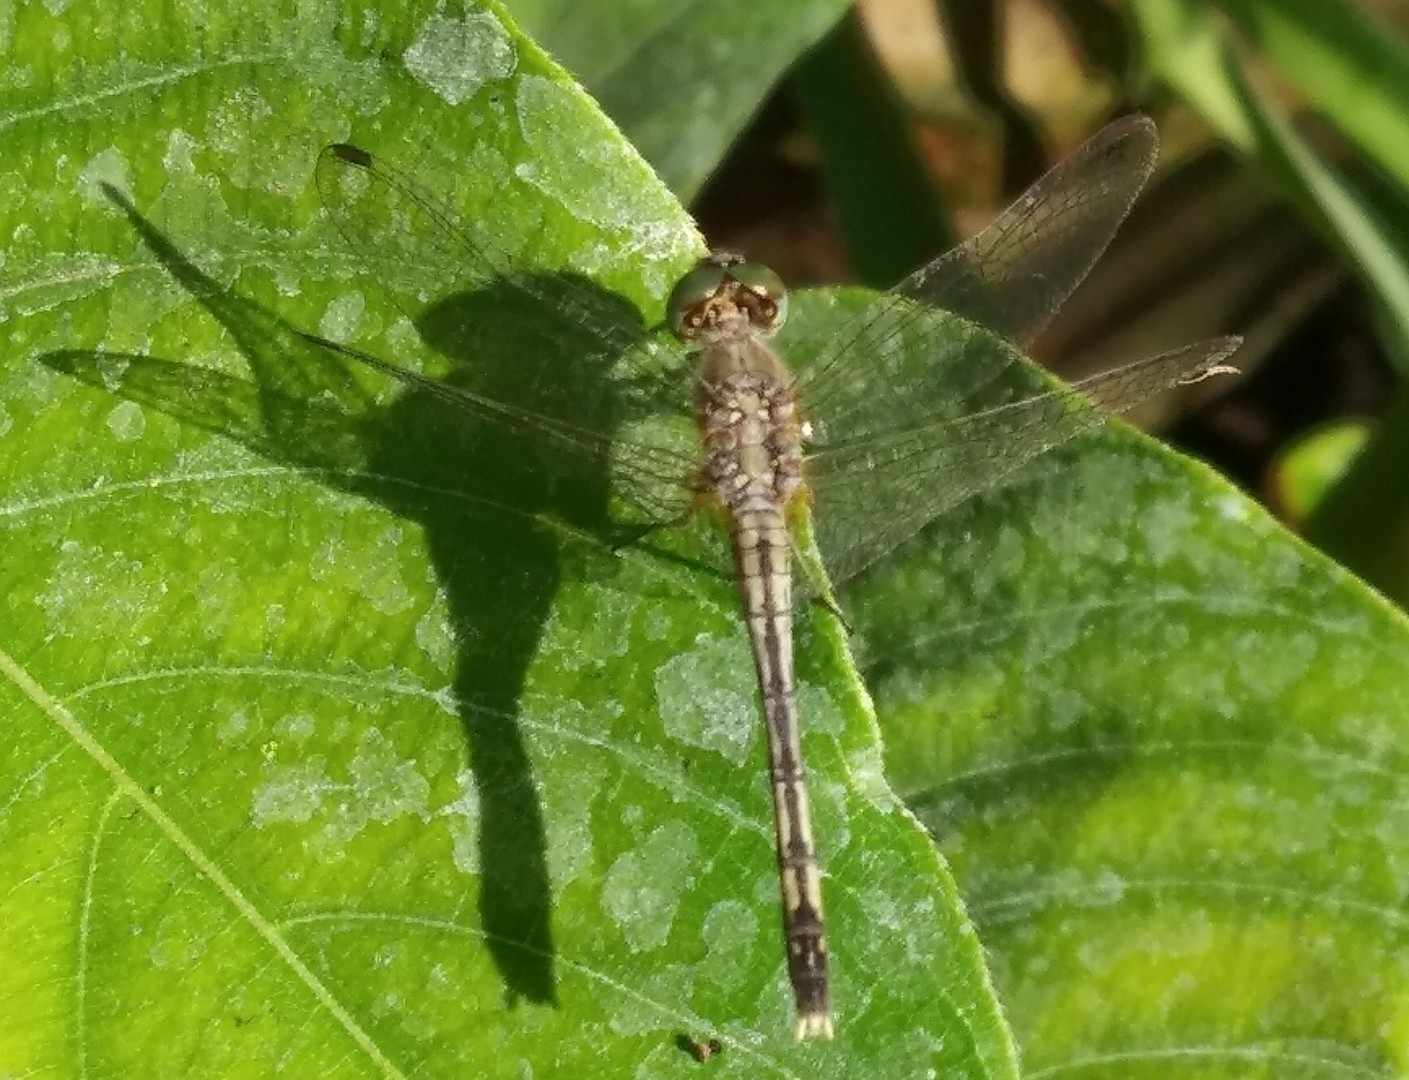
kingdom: Animalia
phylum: Arthropoda
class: Insecta
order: Odonata
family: Libellulidae
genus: Diplacodes
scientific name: Diplacodes trivialis
